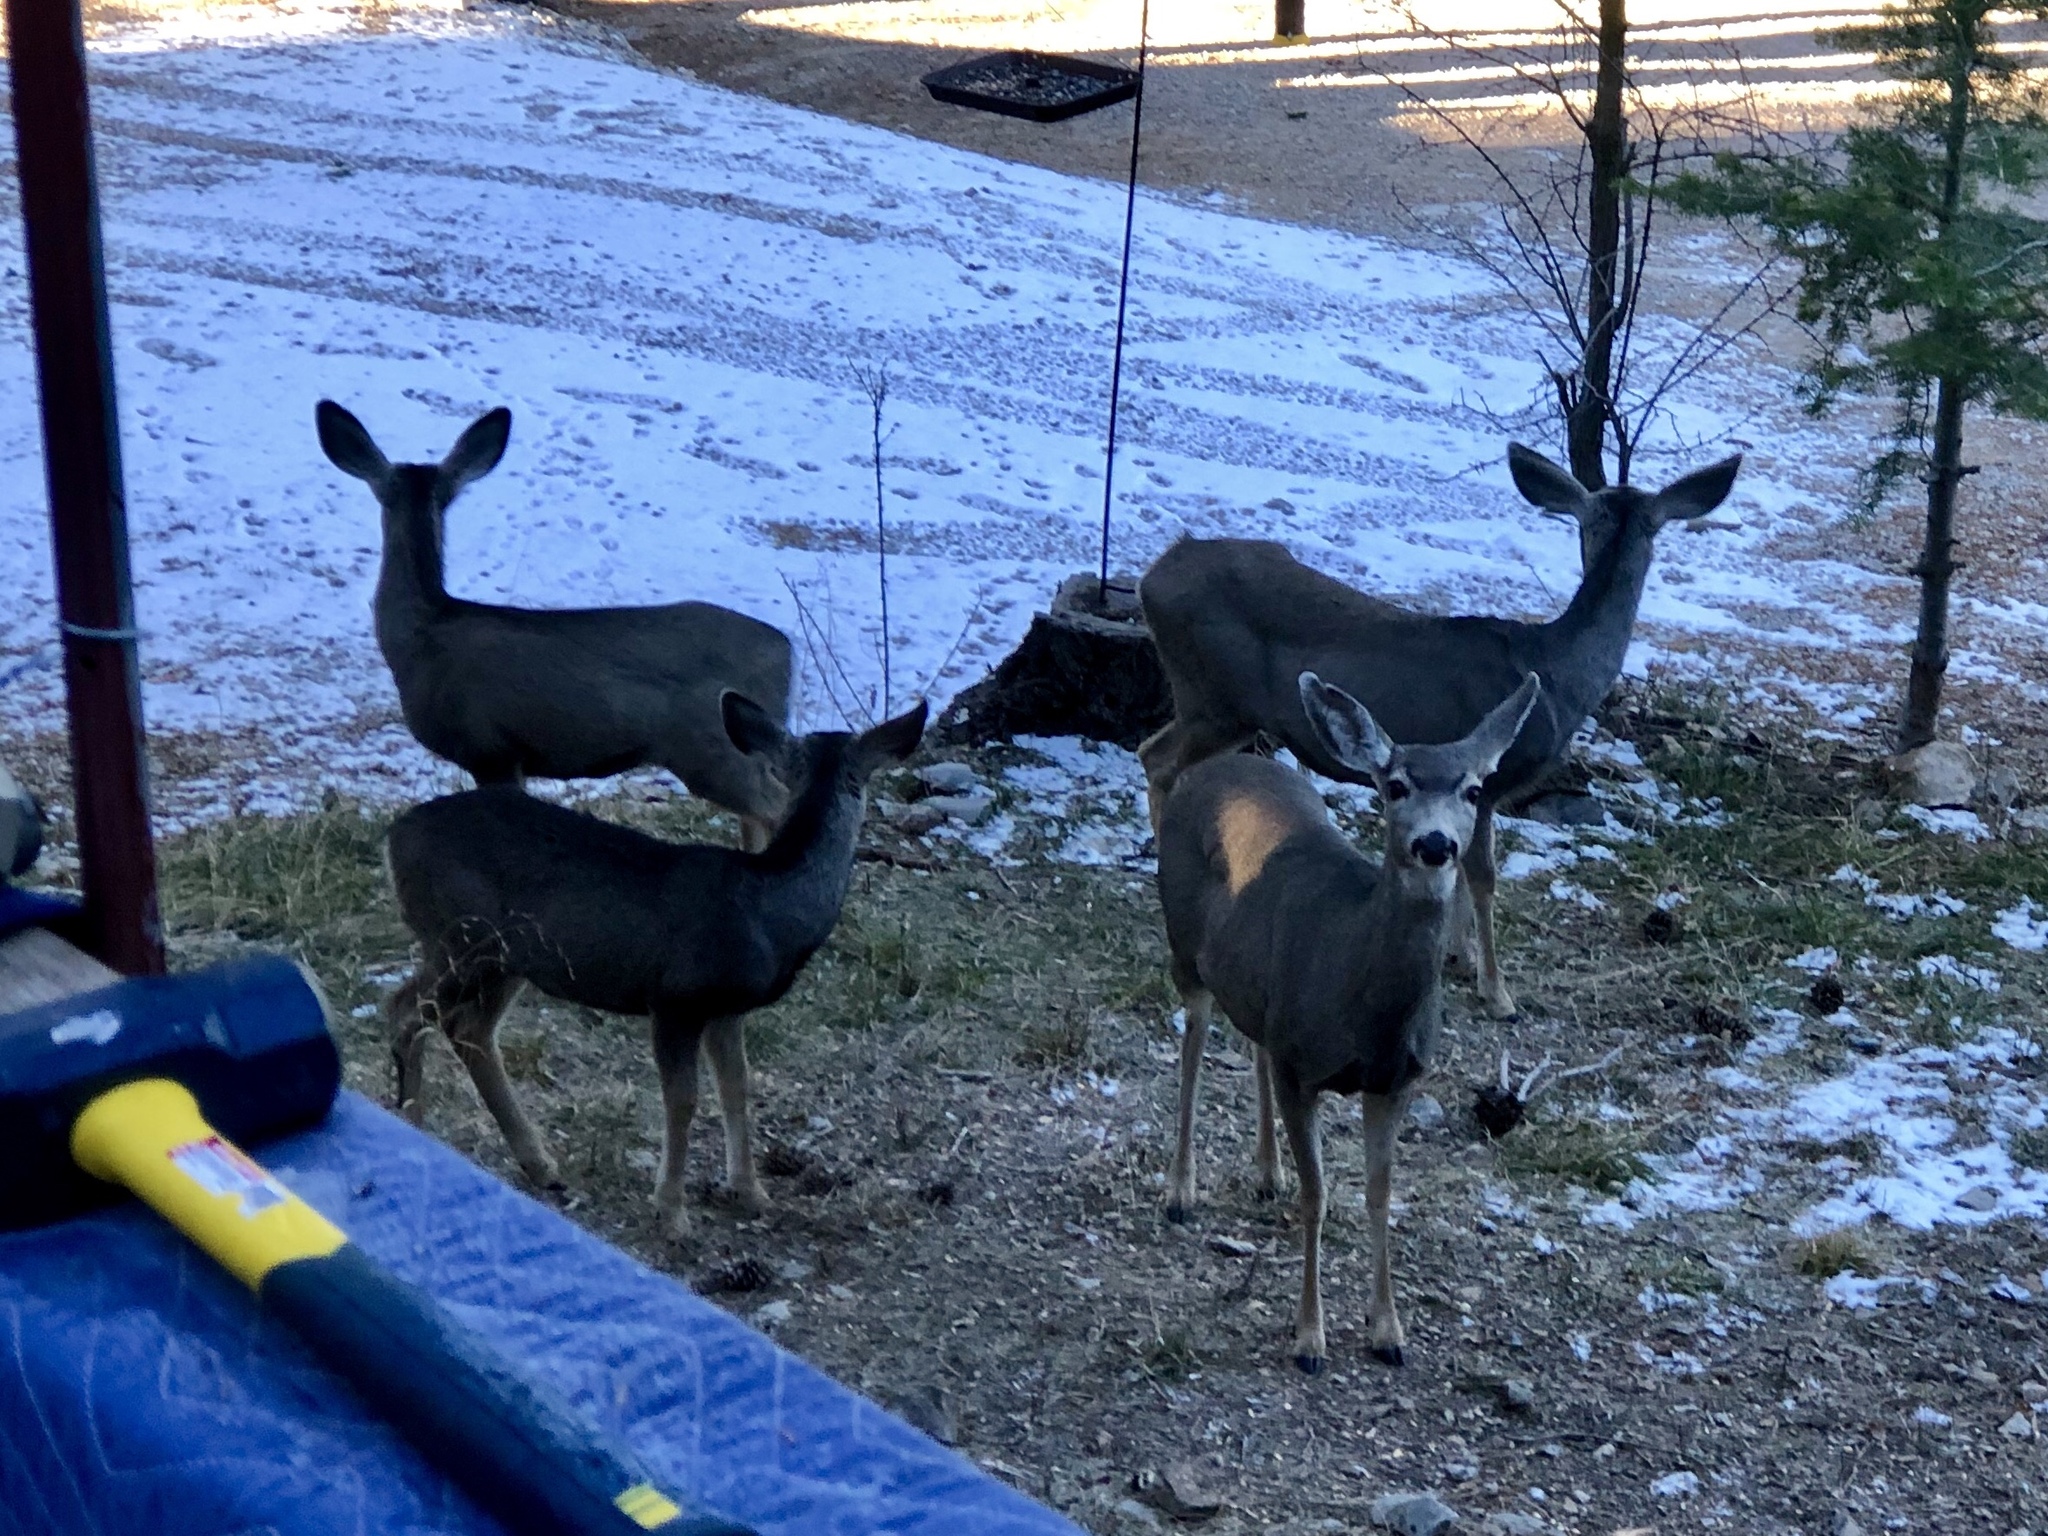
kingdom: Animalia
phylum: Chordata
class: Mammalia
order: Artiodactyla
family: Cervidae
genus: Odocoileus
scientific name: Odocoileus hemionus
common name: Mule deer
